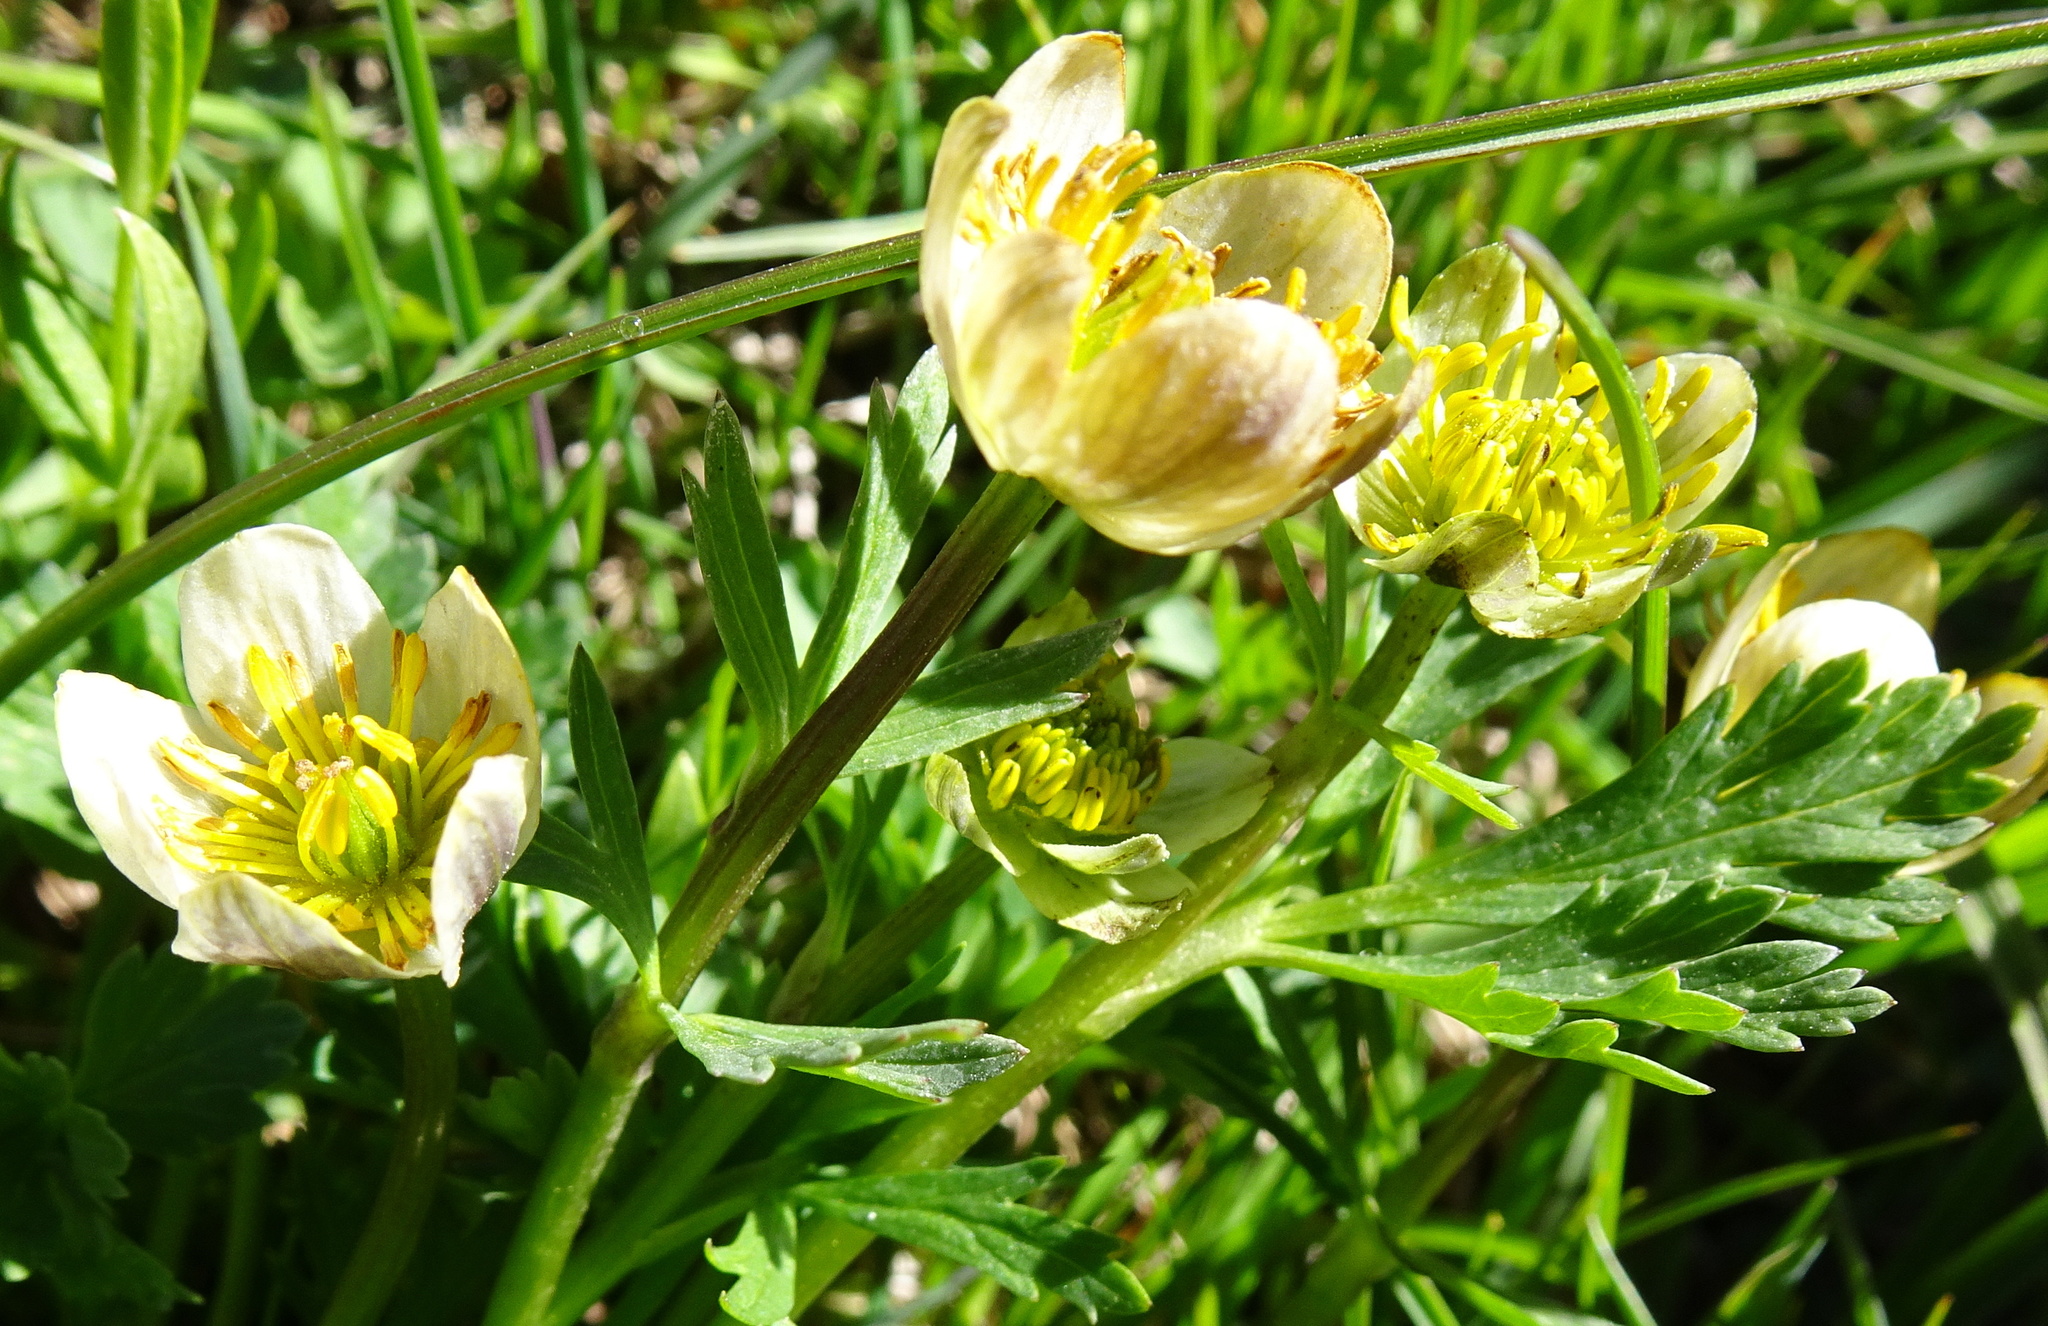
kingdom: Plantae
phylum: Tracheophyta
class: Magnoliopsida
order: Ranunculales
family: Ranunculaceae
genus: Trollius
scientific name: Trollius komarovii
